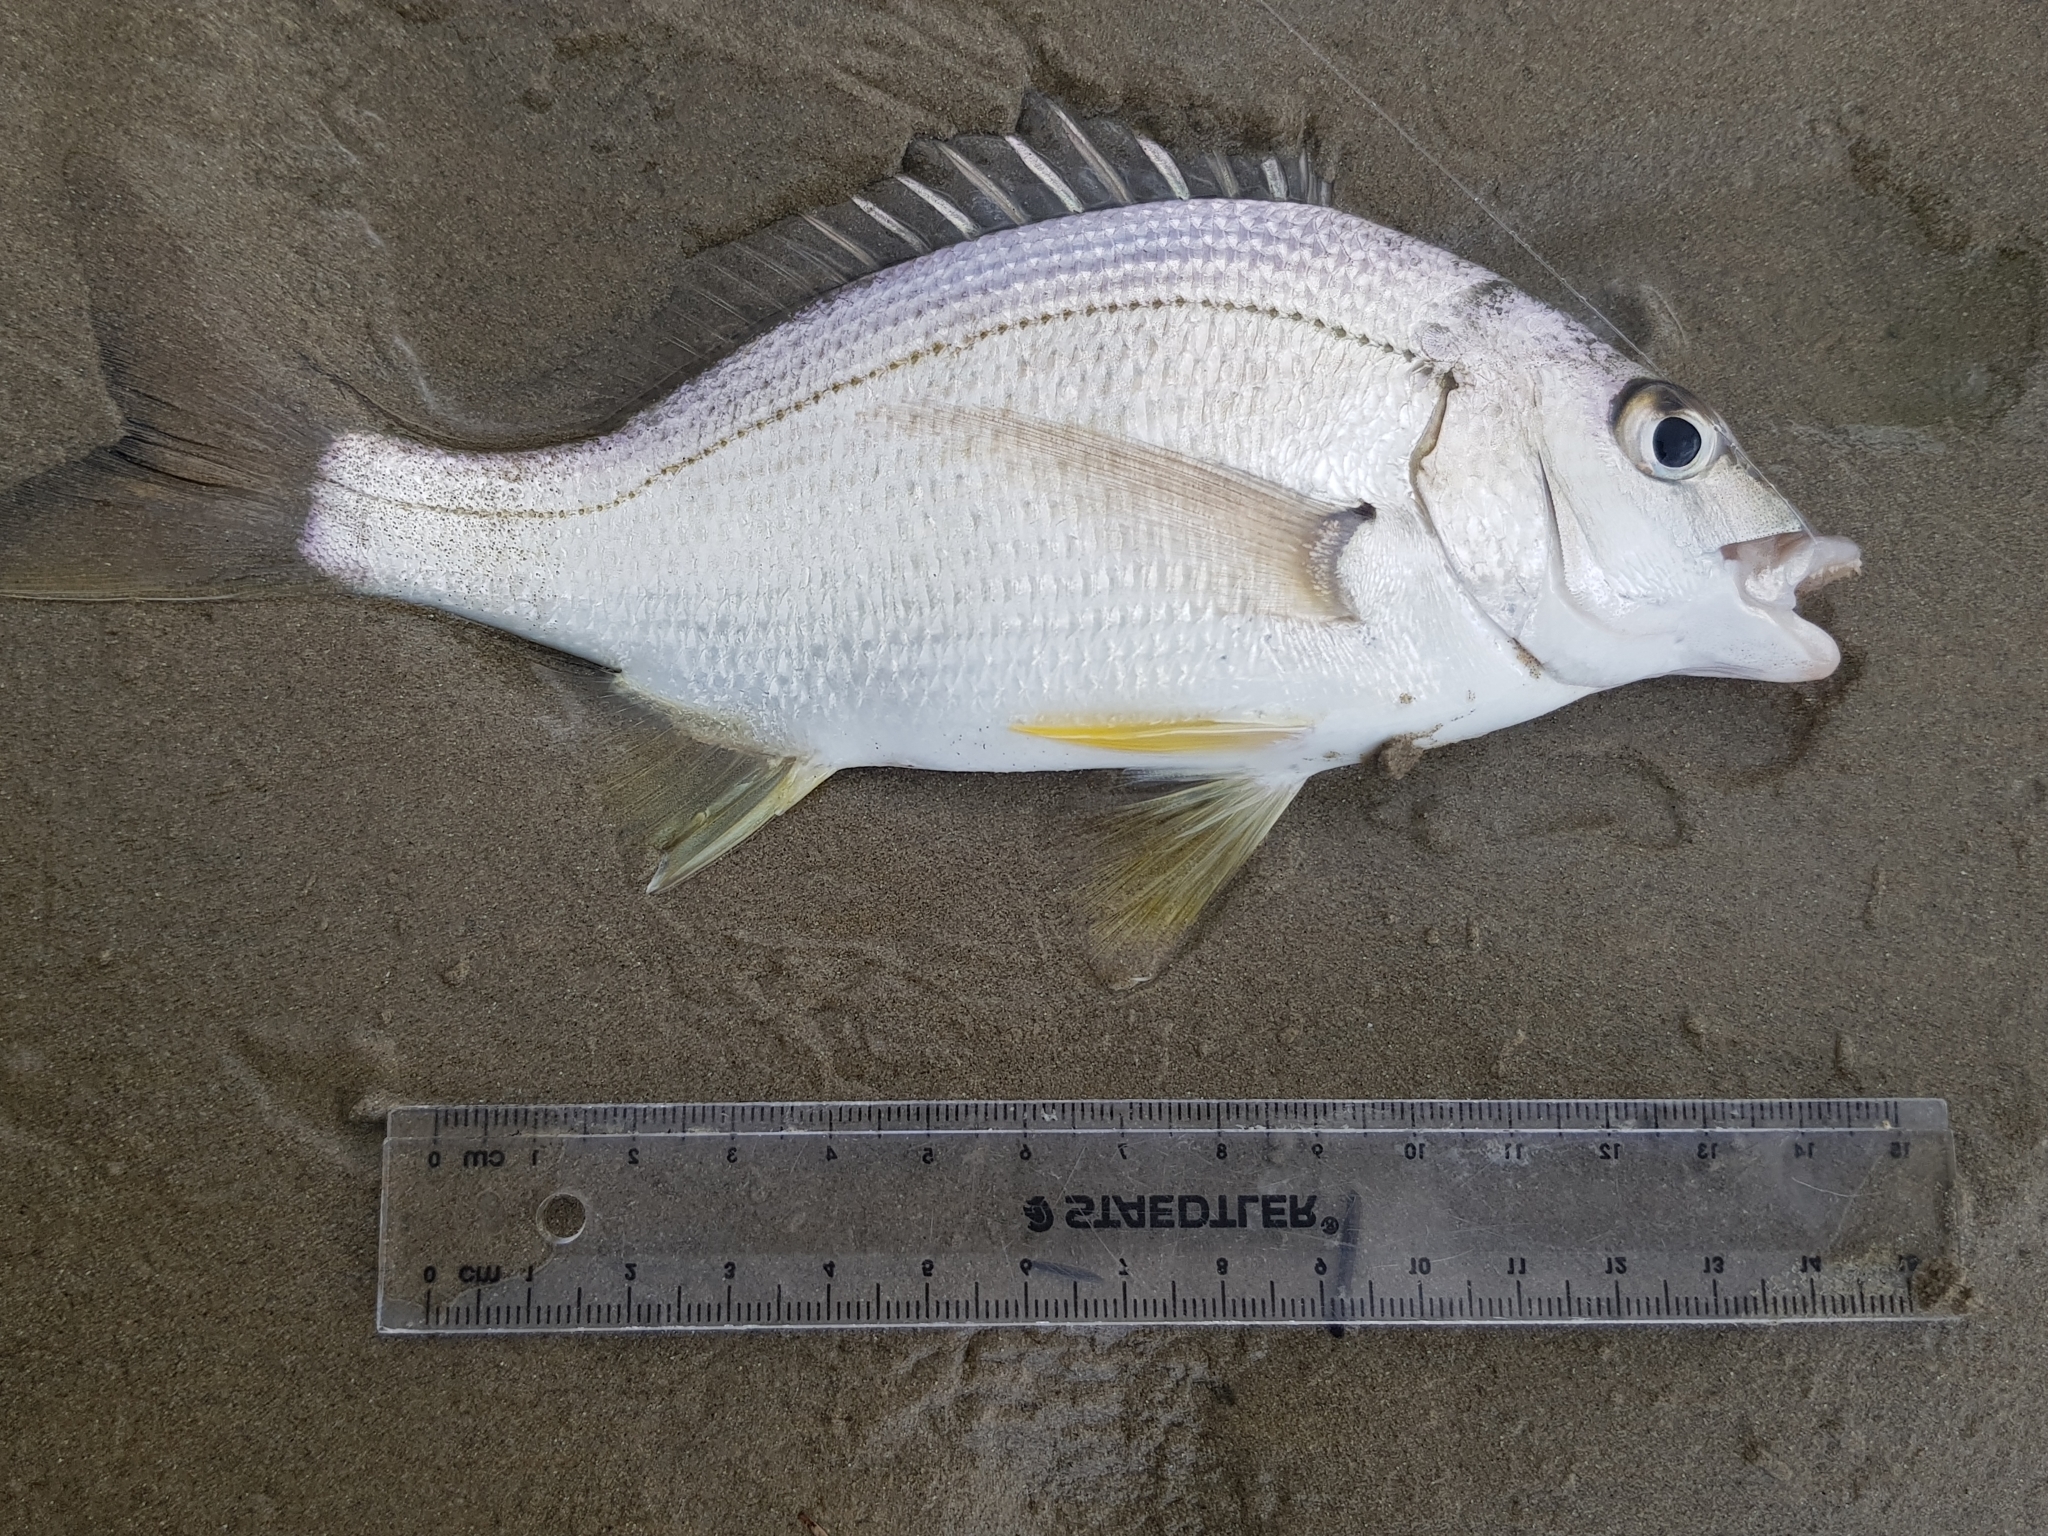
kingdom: Animalia
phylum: Chordata
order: Perciformes
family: Sparidae
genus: Acanthopagrus
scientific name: Acanthopagrus butcheri
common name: Black bream
